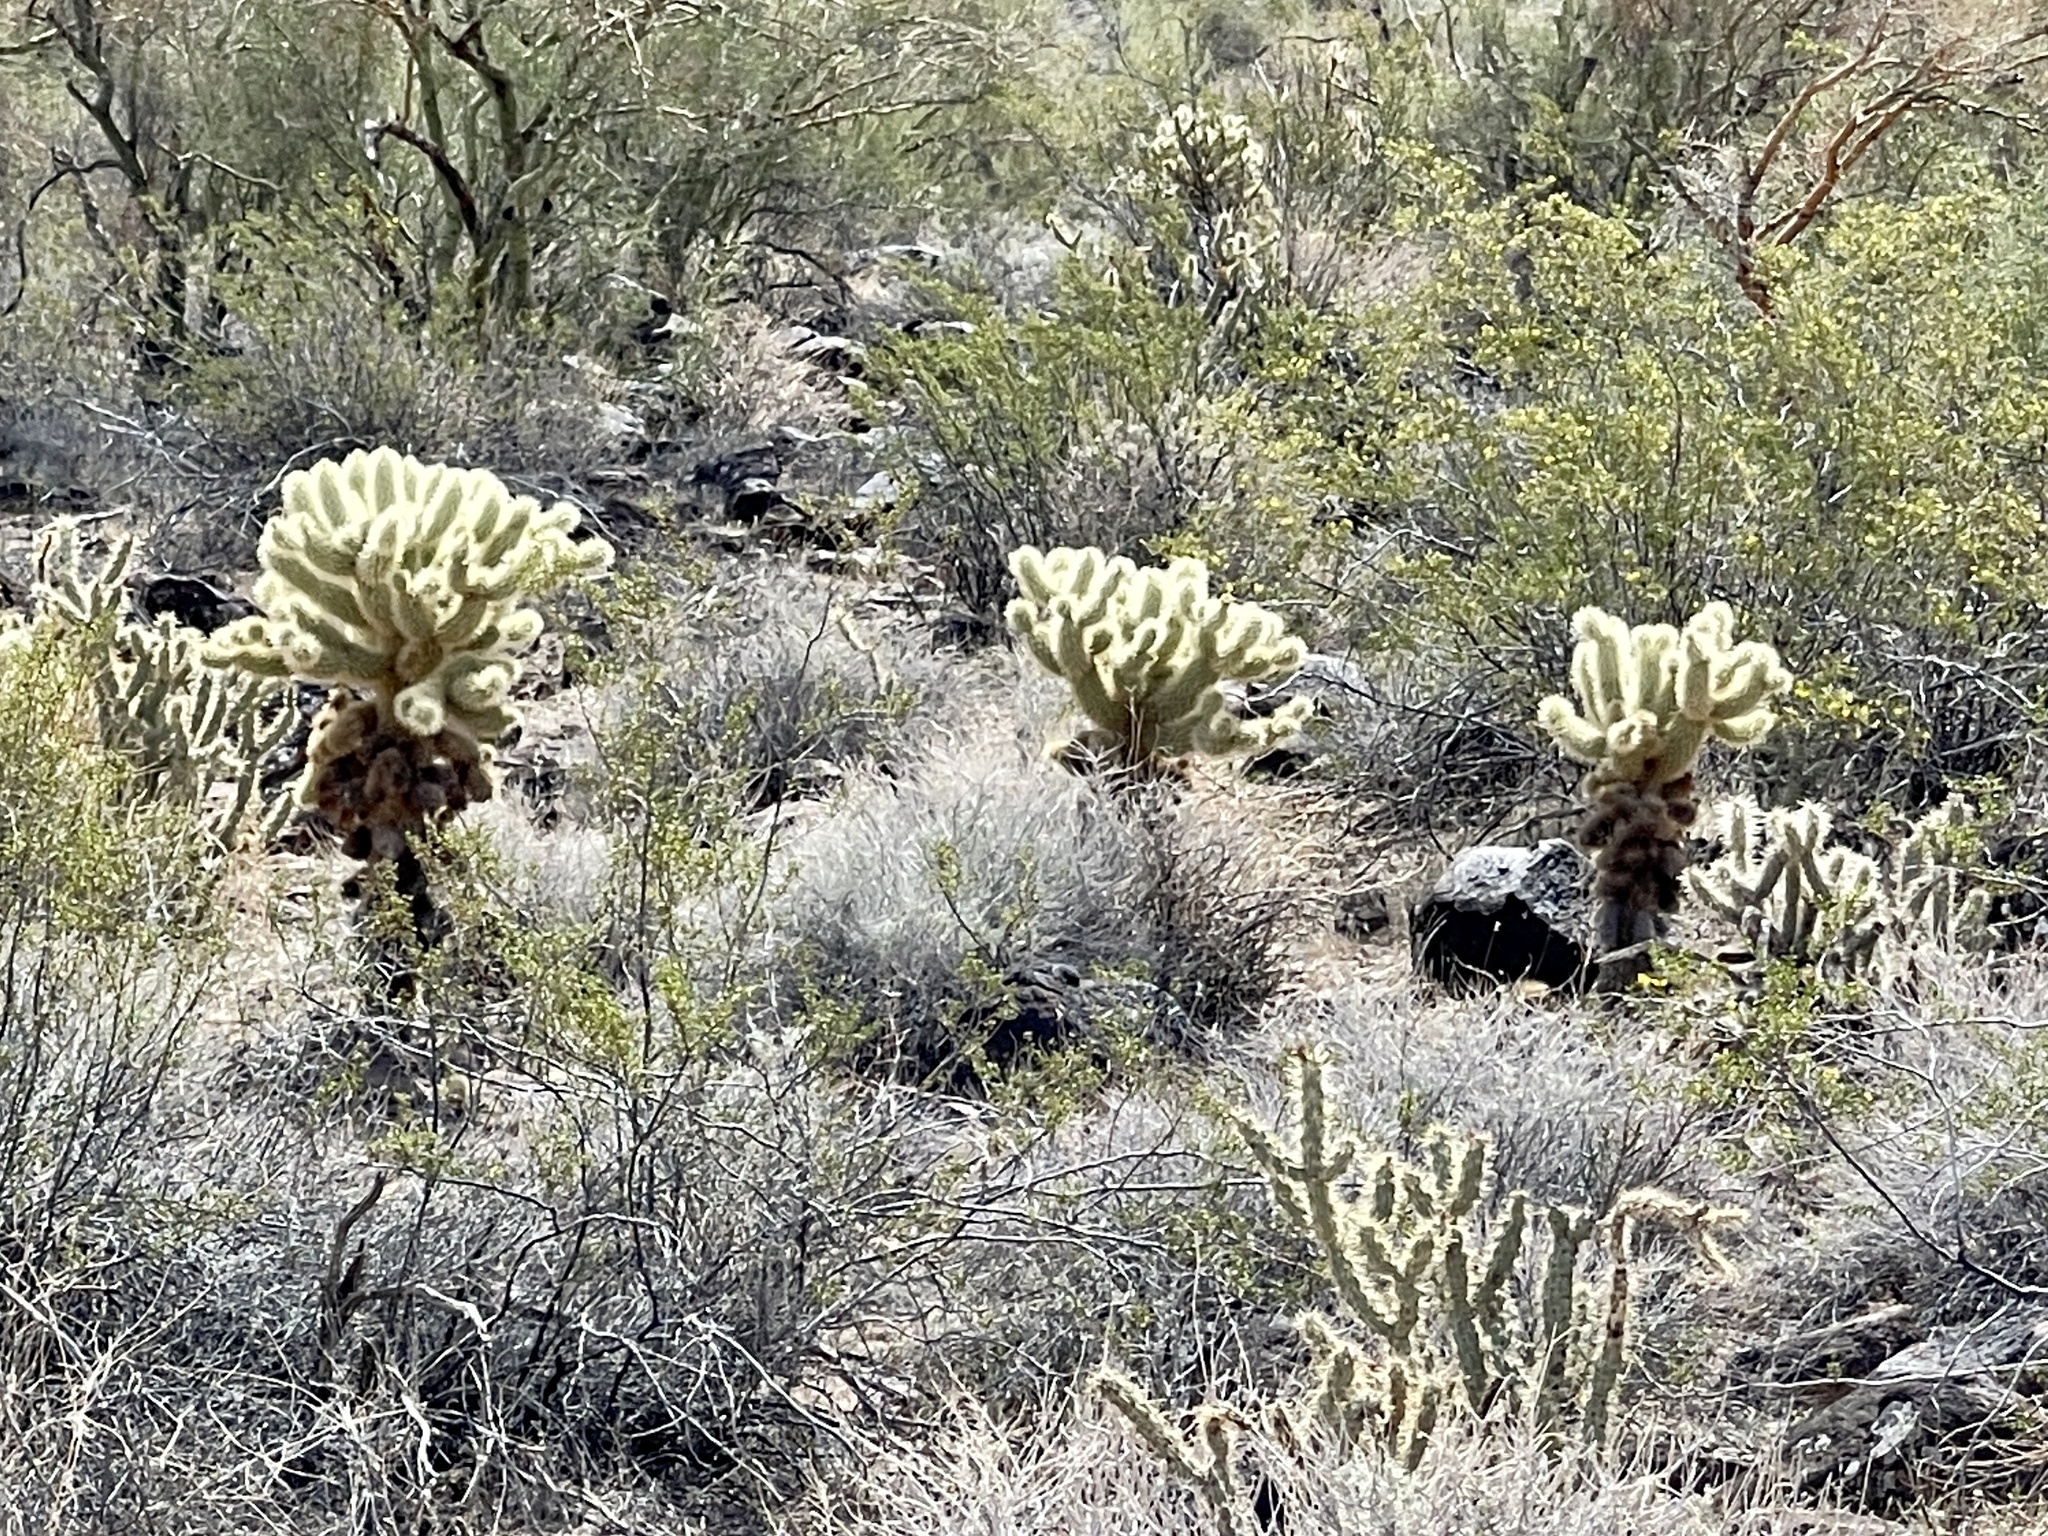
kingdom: Plantae
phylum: Tracheophyta
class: Magnoliopsida
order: Caryophyllales
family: Cactaceae
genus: Cylindropuntia
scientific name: Cylindropuntia fosbergii
